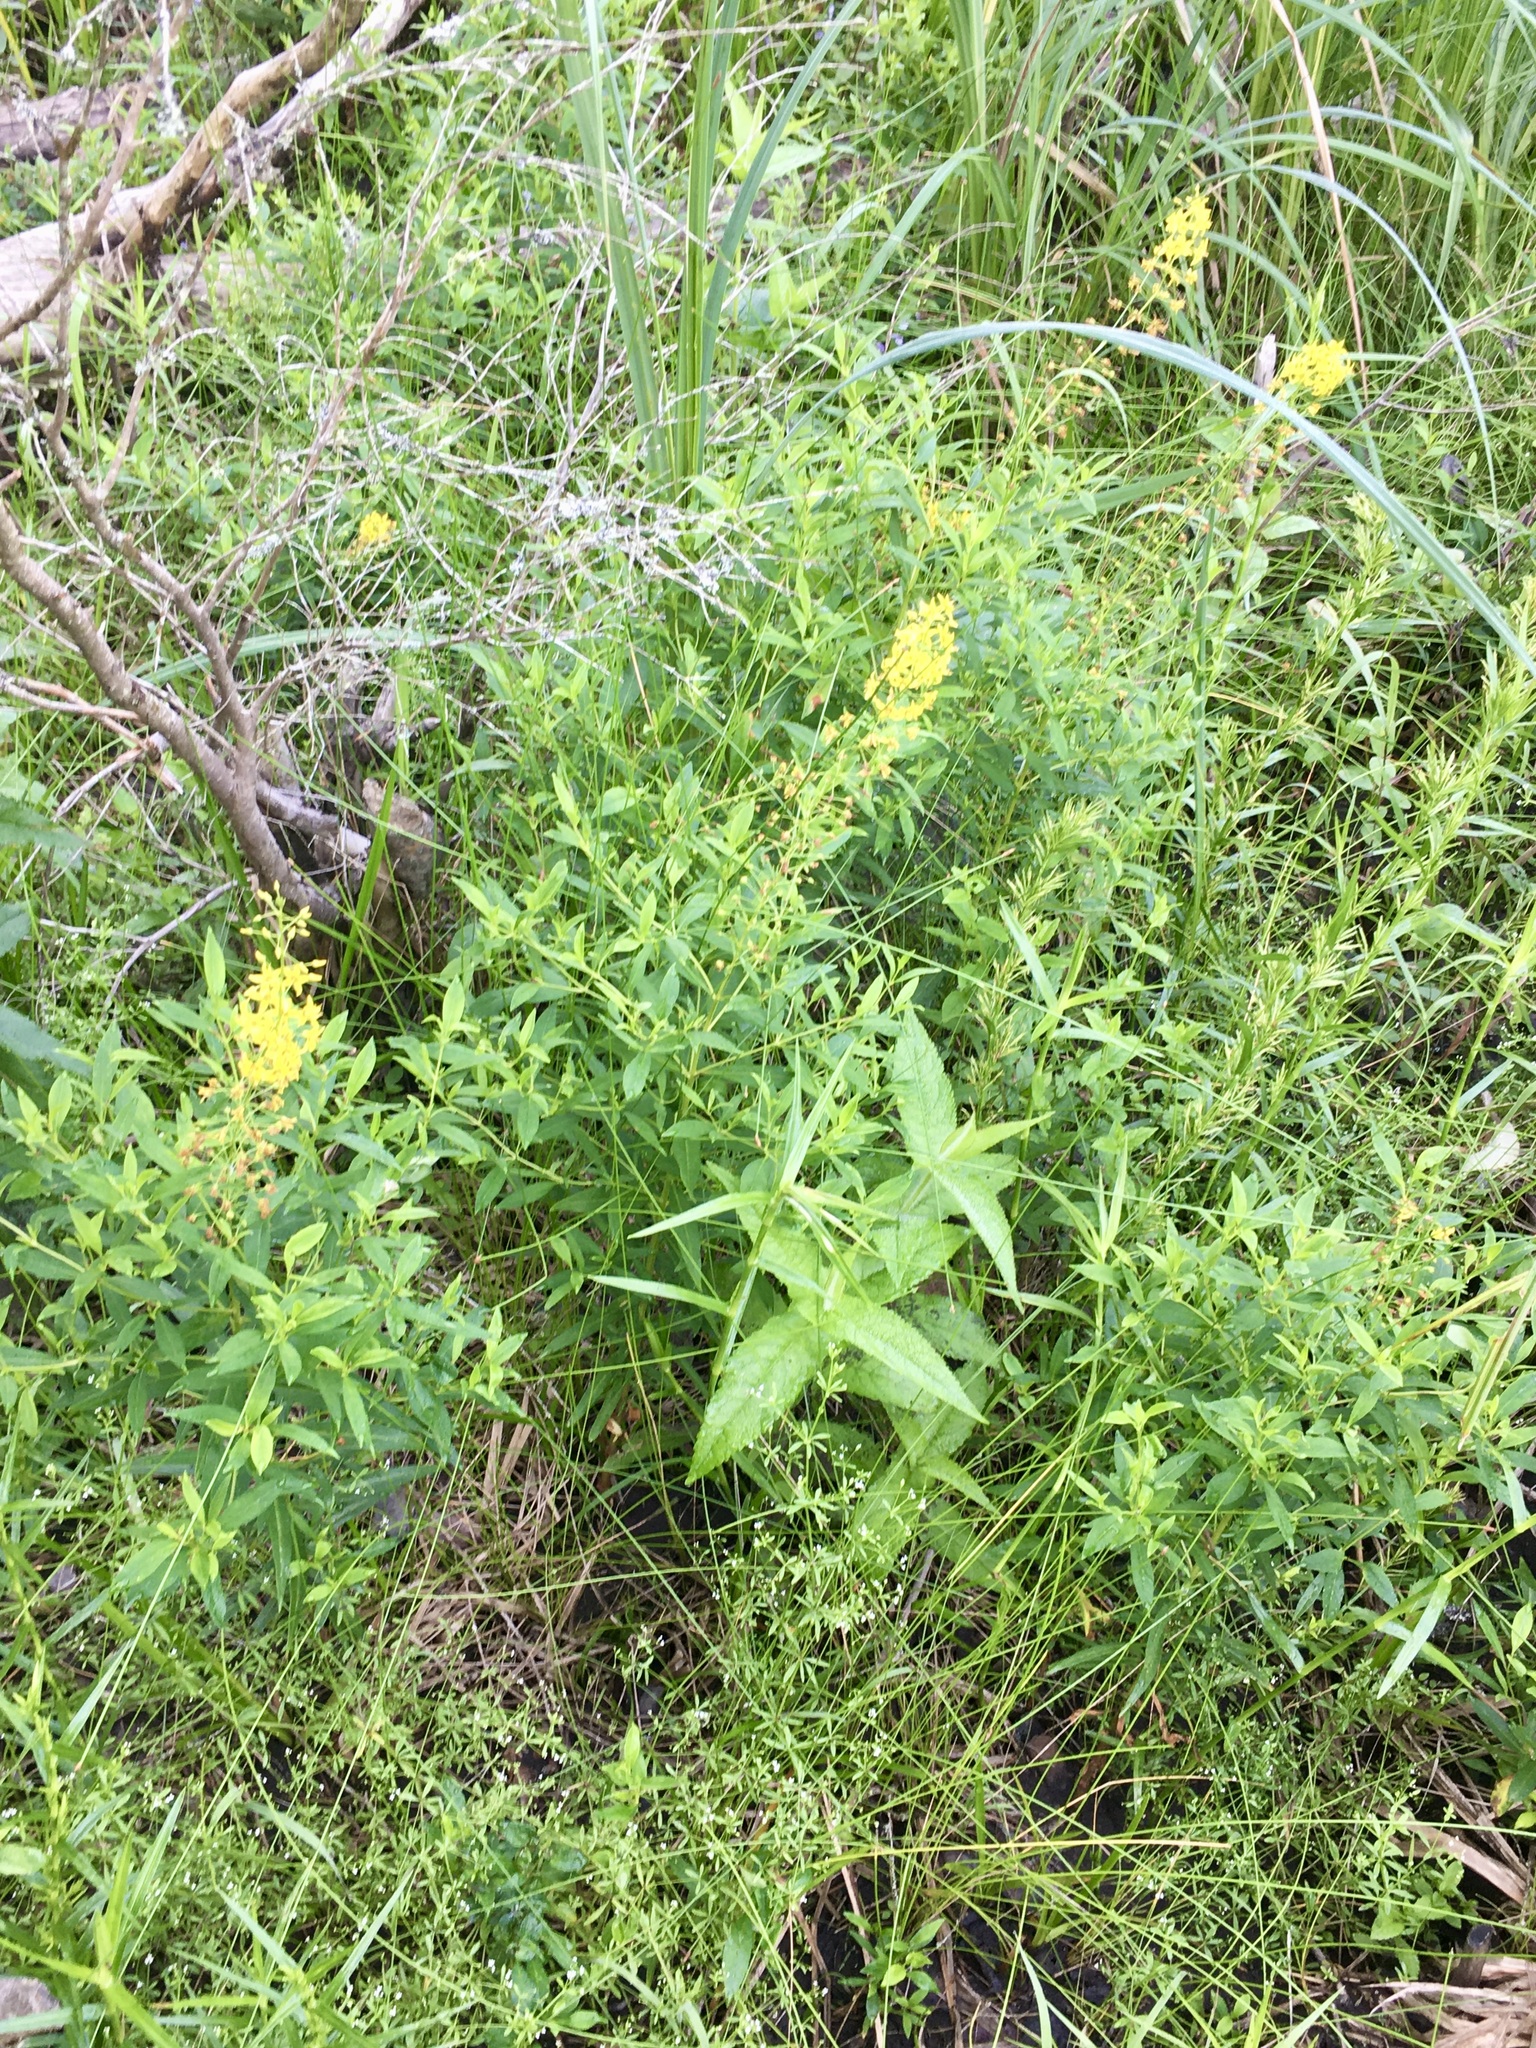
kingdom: Plantae
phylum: Tracheophyta
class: Magnoliopsida
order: Ericales
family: Primulaceae
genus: Lysimachia
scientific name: Lysimachia terrestris
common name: Lake loosestrife
